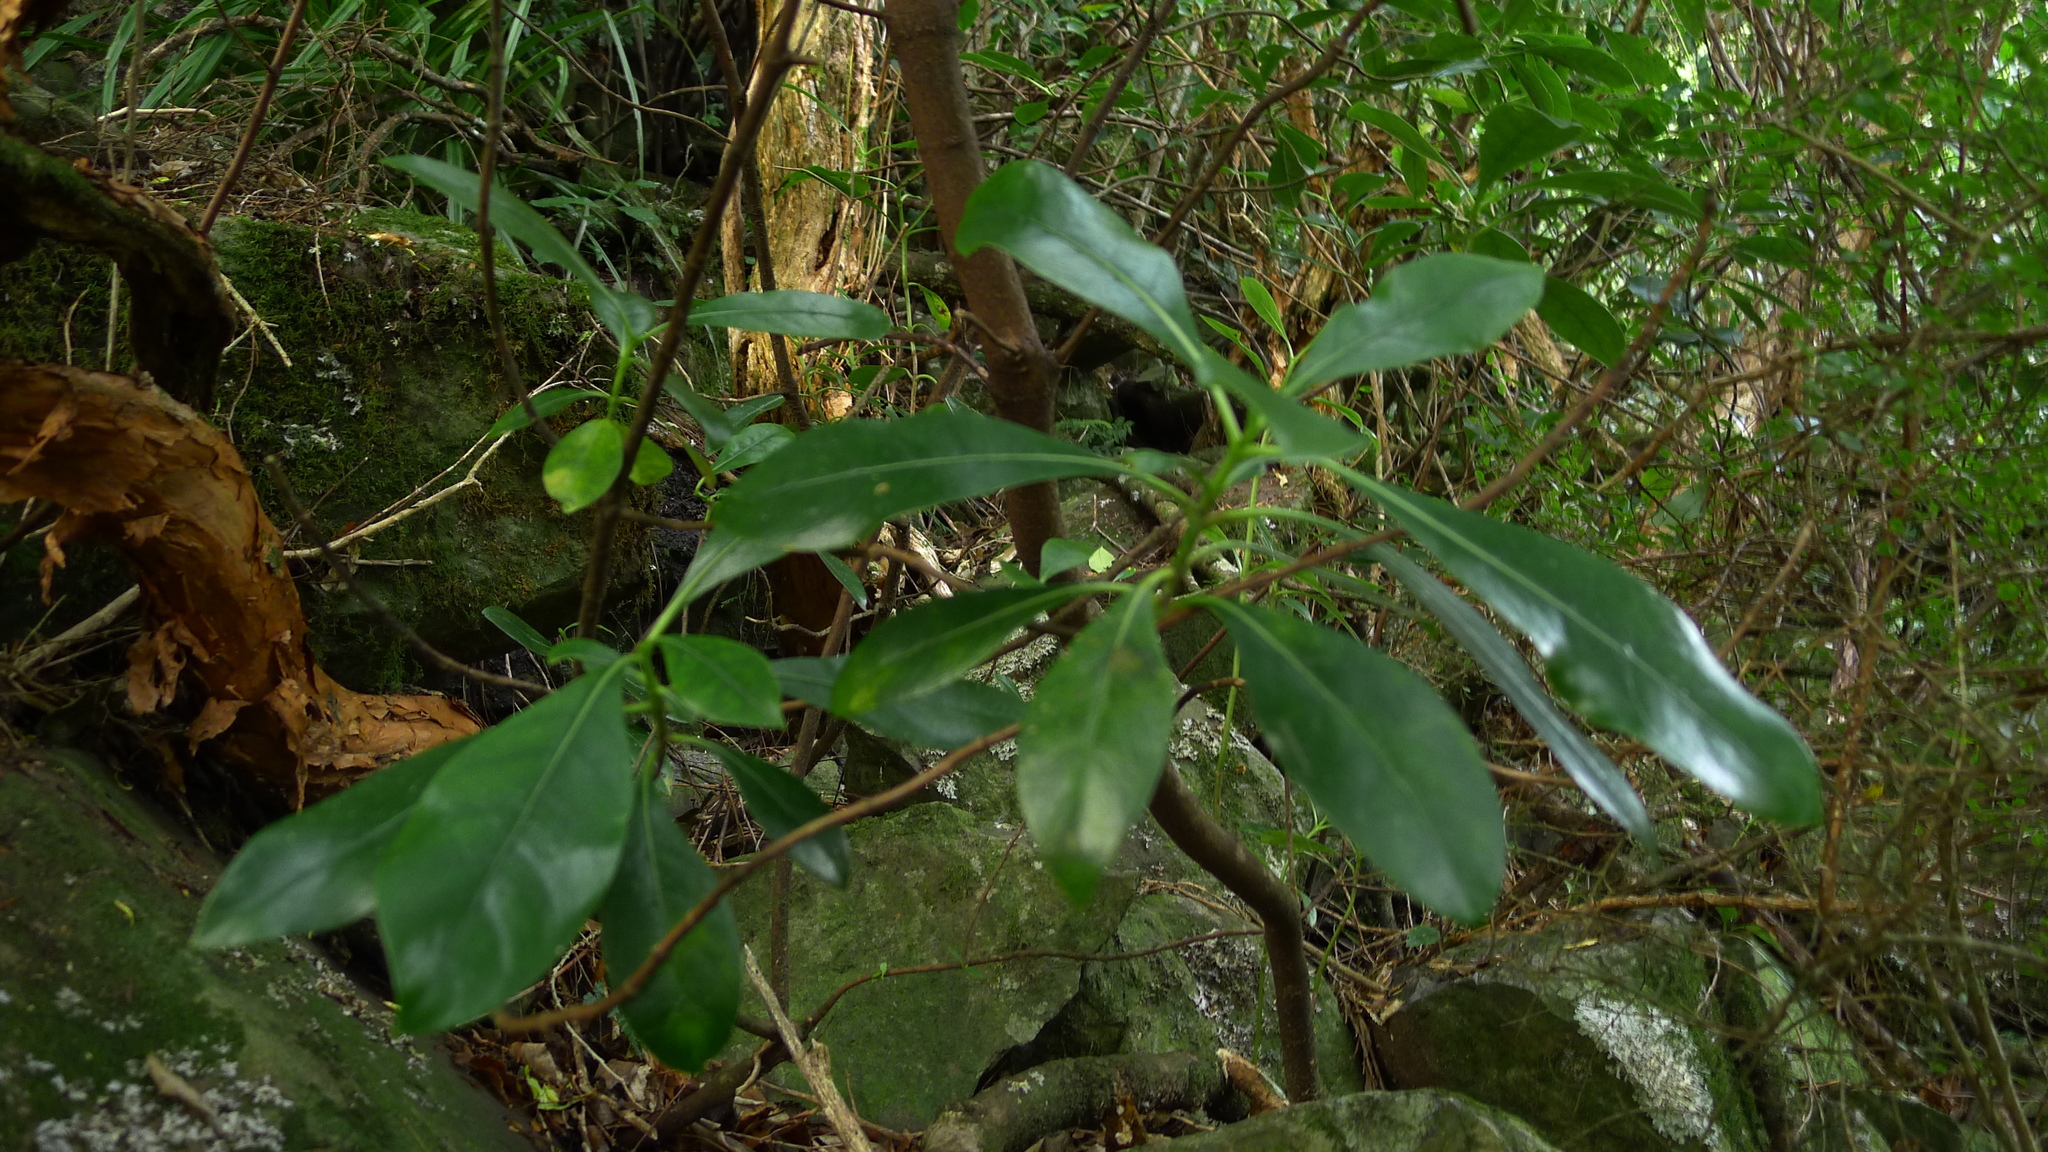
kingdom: Plantae
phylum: Tracheophyta
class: Magnoliopsida
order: Gentianales
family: Rubiaceae
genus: Coprosma
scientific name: Coprosma lucida
